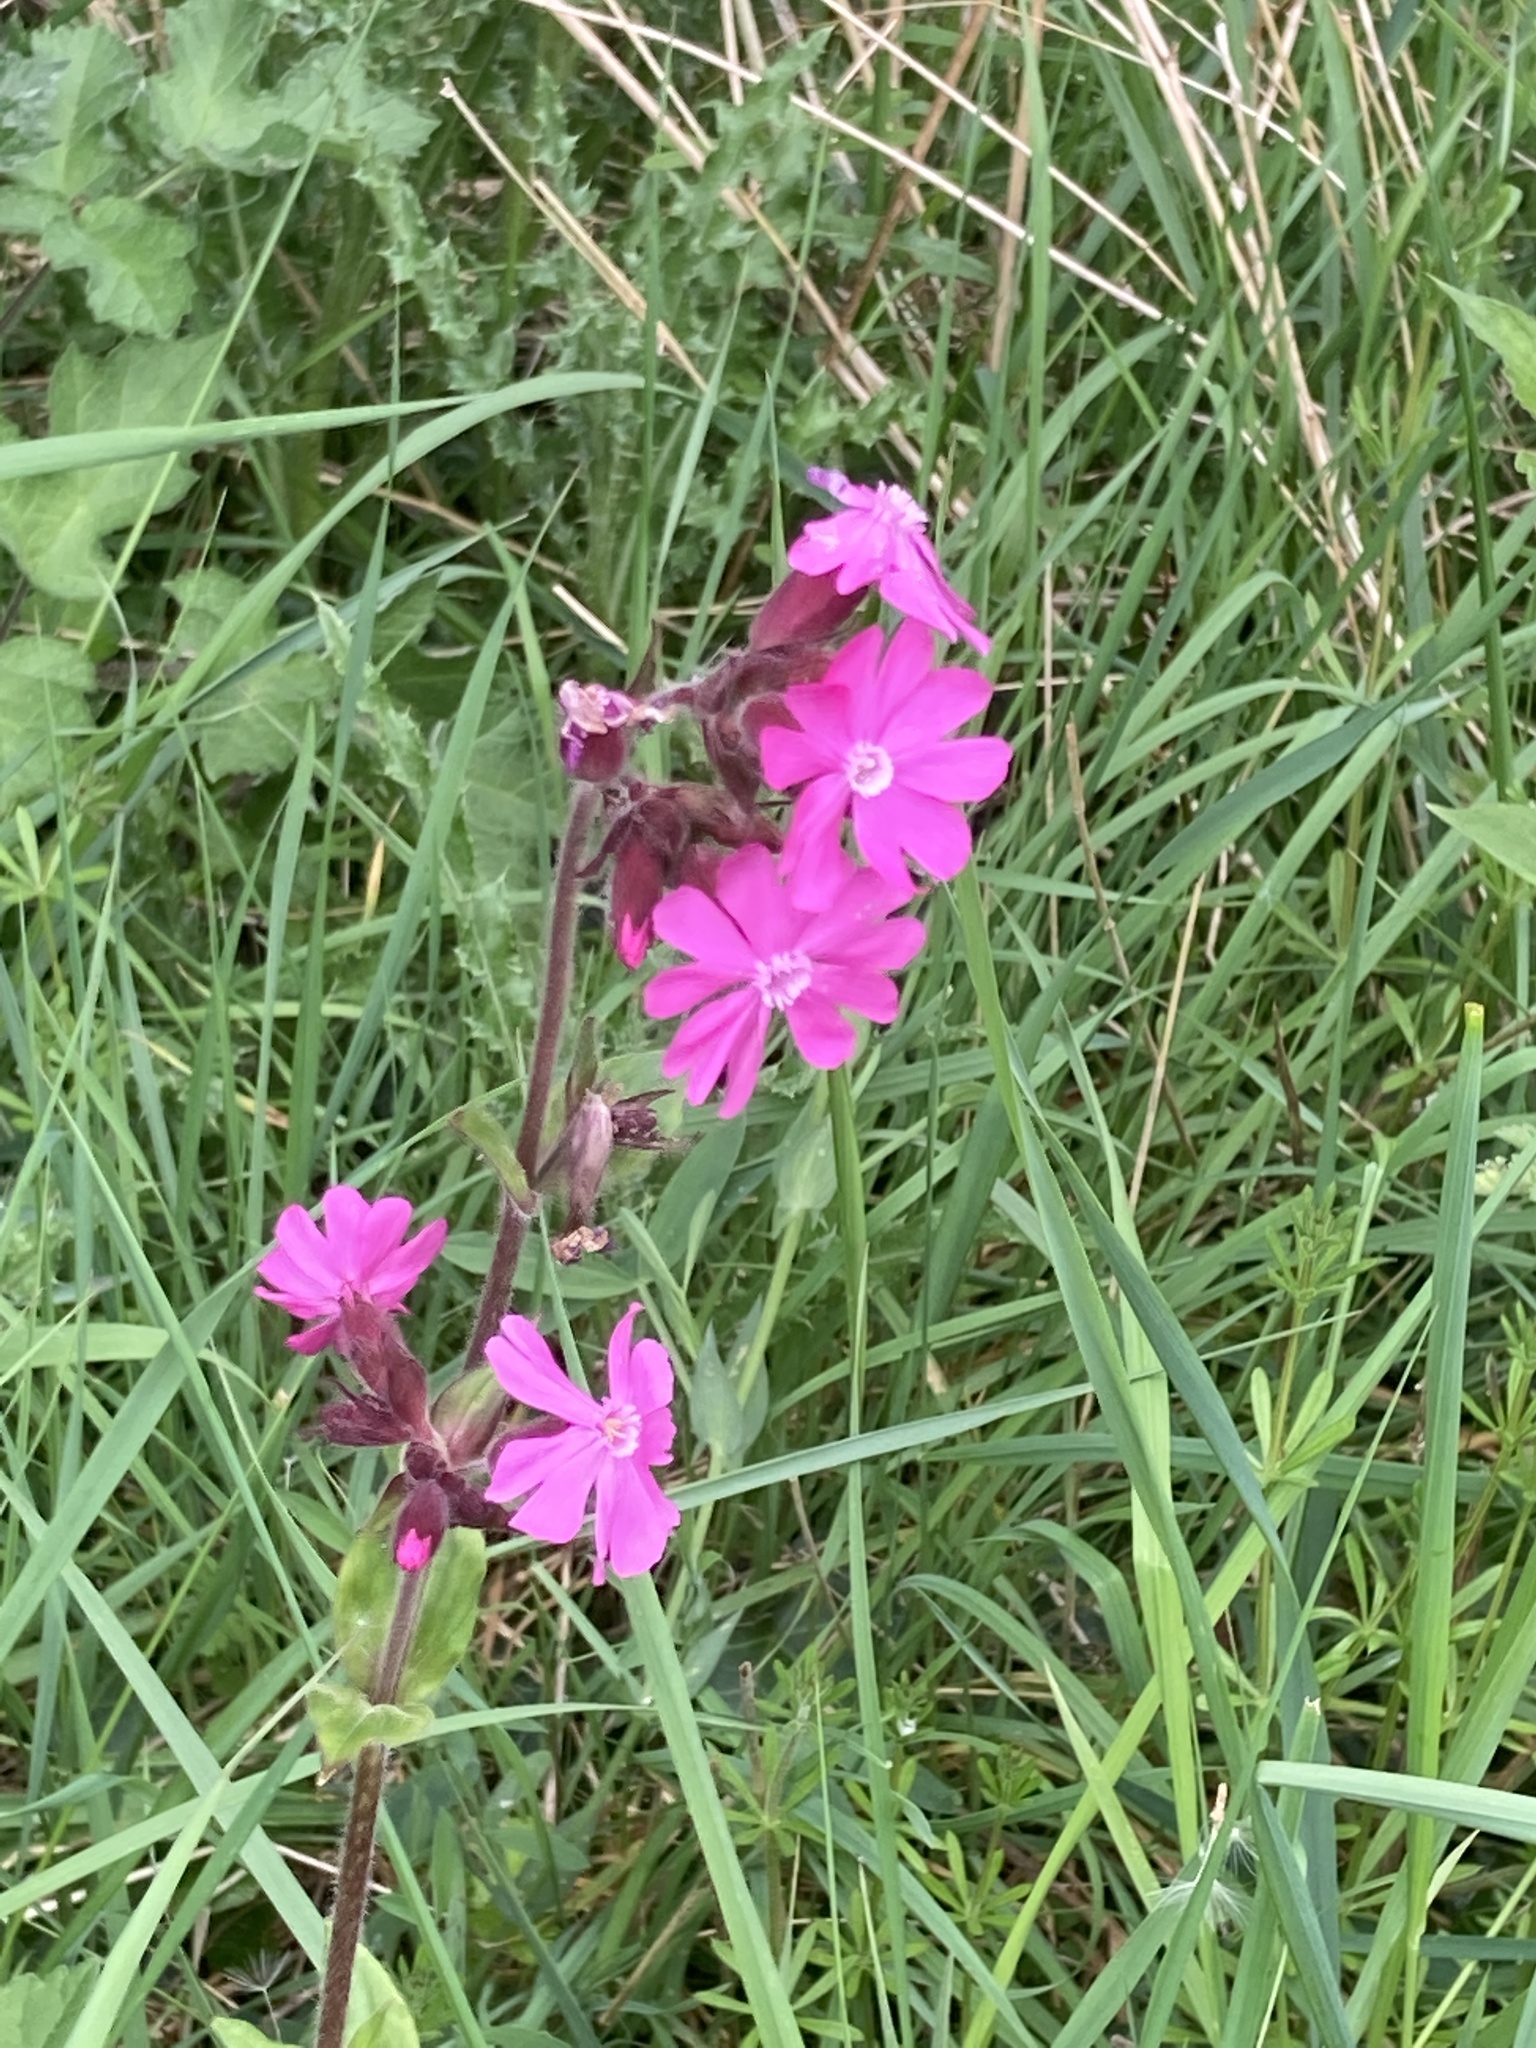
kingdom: Plantae
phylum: Tracheophyta
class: Magnoliopsida
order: Caryophyllales
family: Caryophyllaceae
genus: Silene
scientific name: Silene dioica
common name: Red campion
